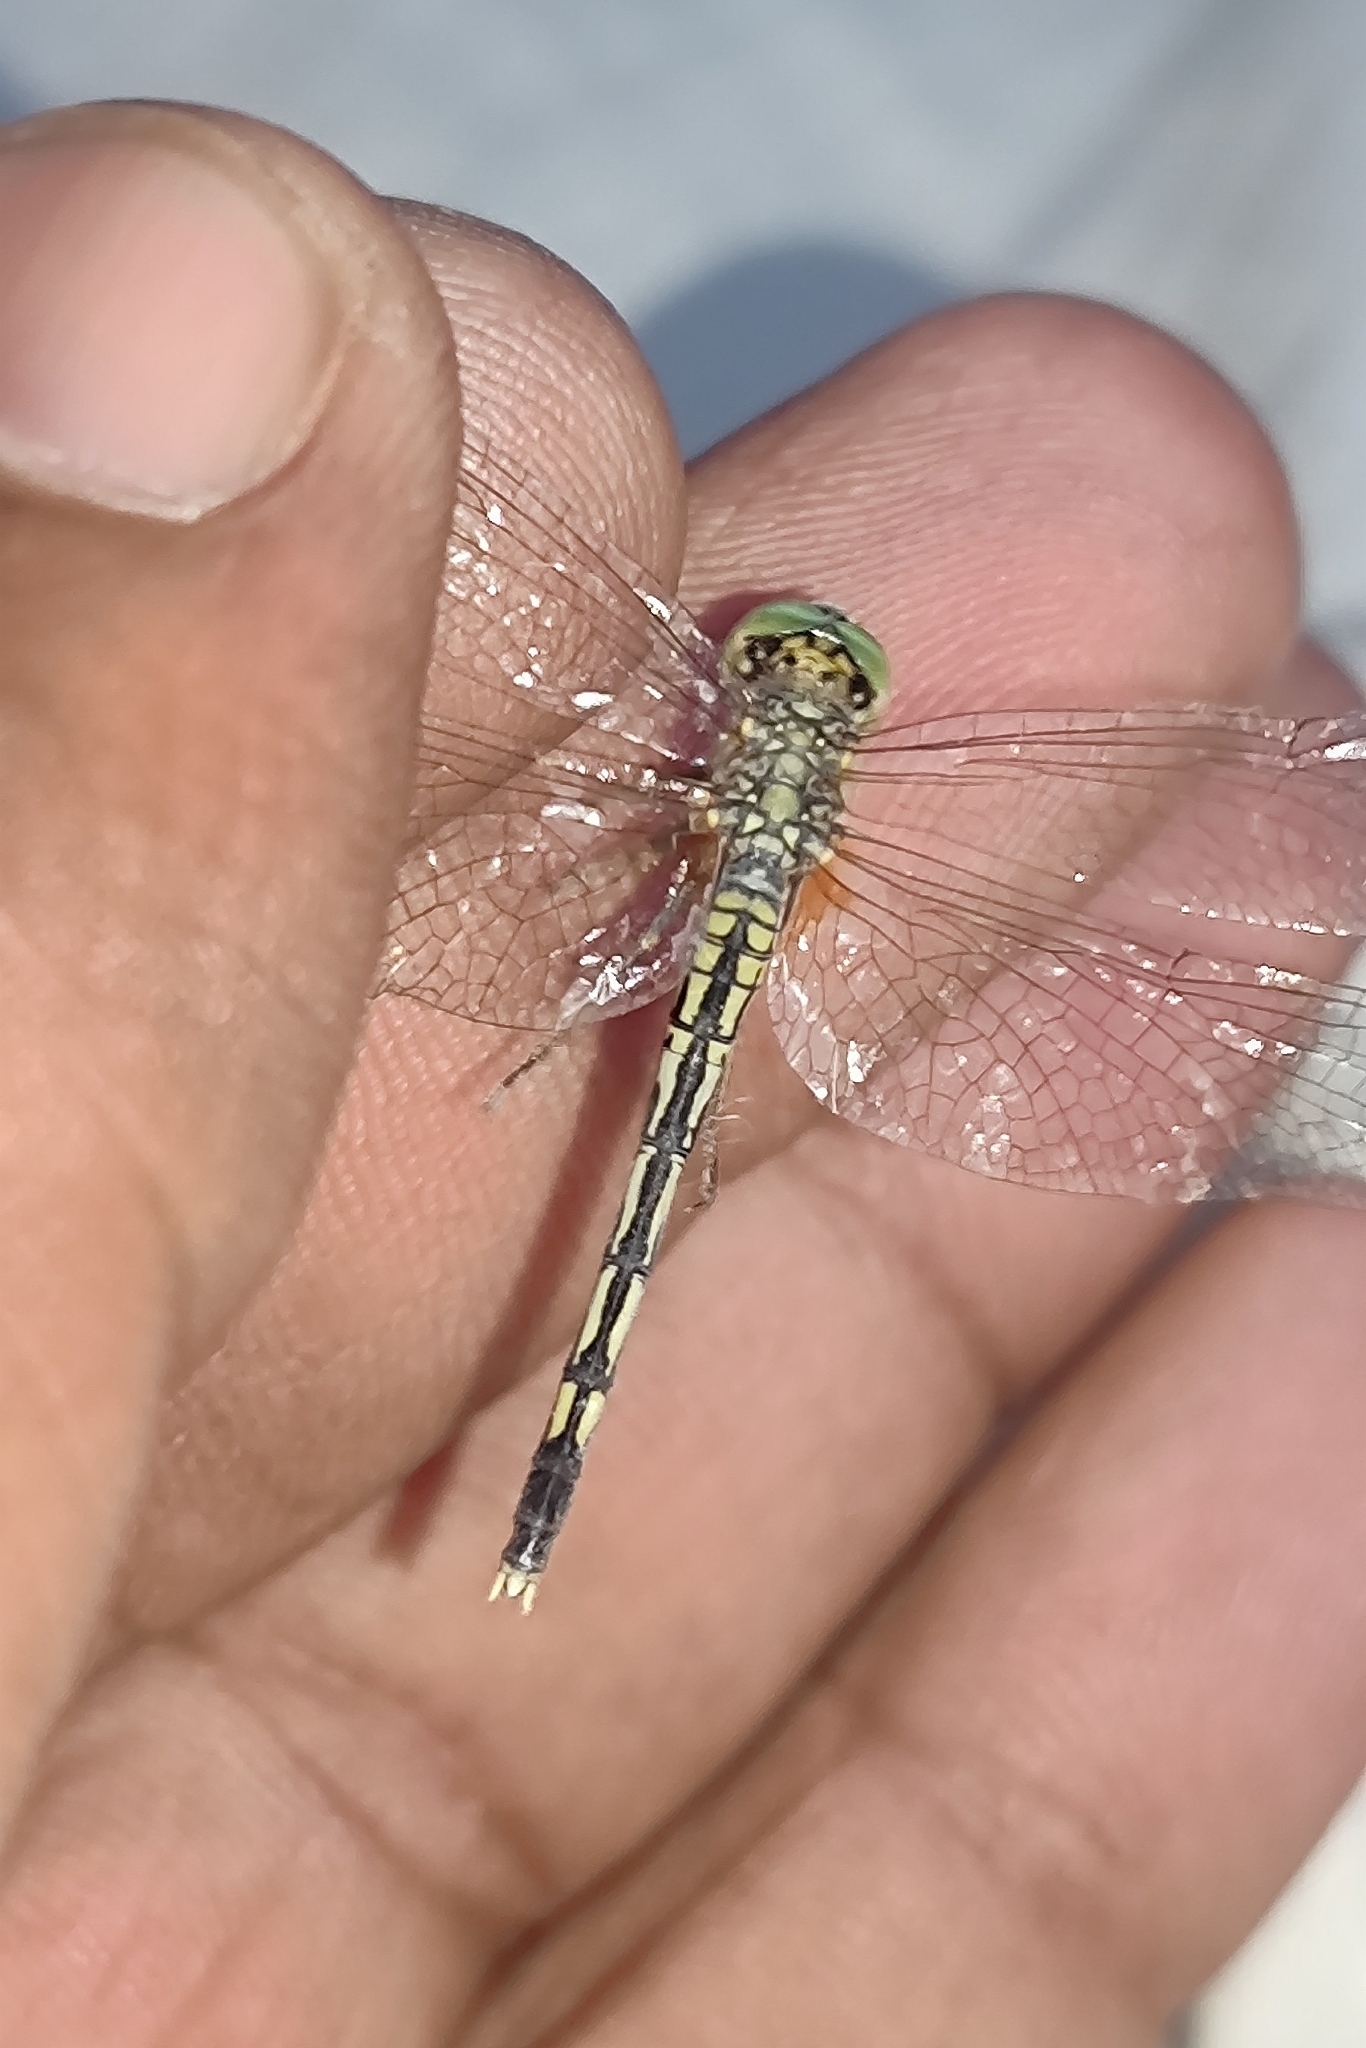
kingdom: Animalia
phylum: Arthropoda
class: Insecta
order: Odonata
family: Libellulidae
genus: Diplacodes
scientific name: Diplacodes trivialis
